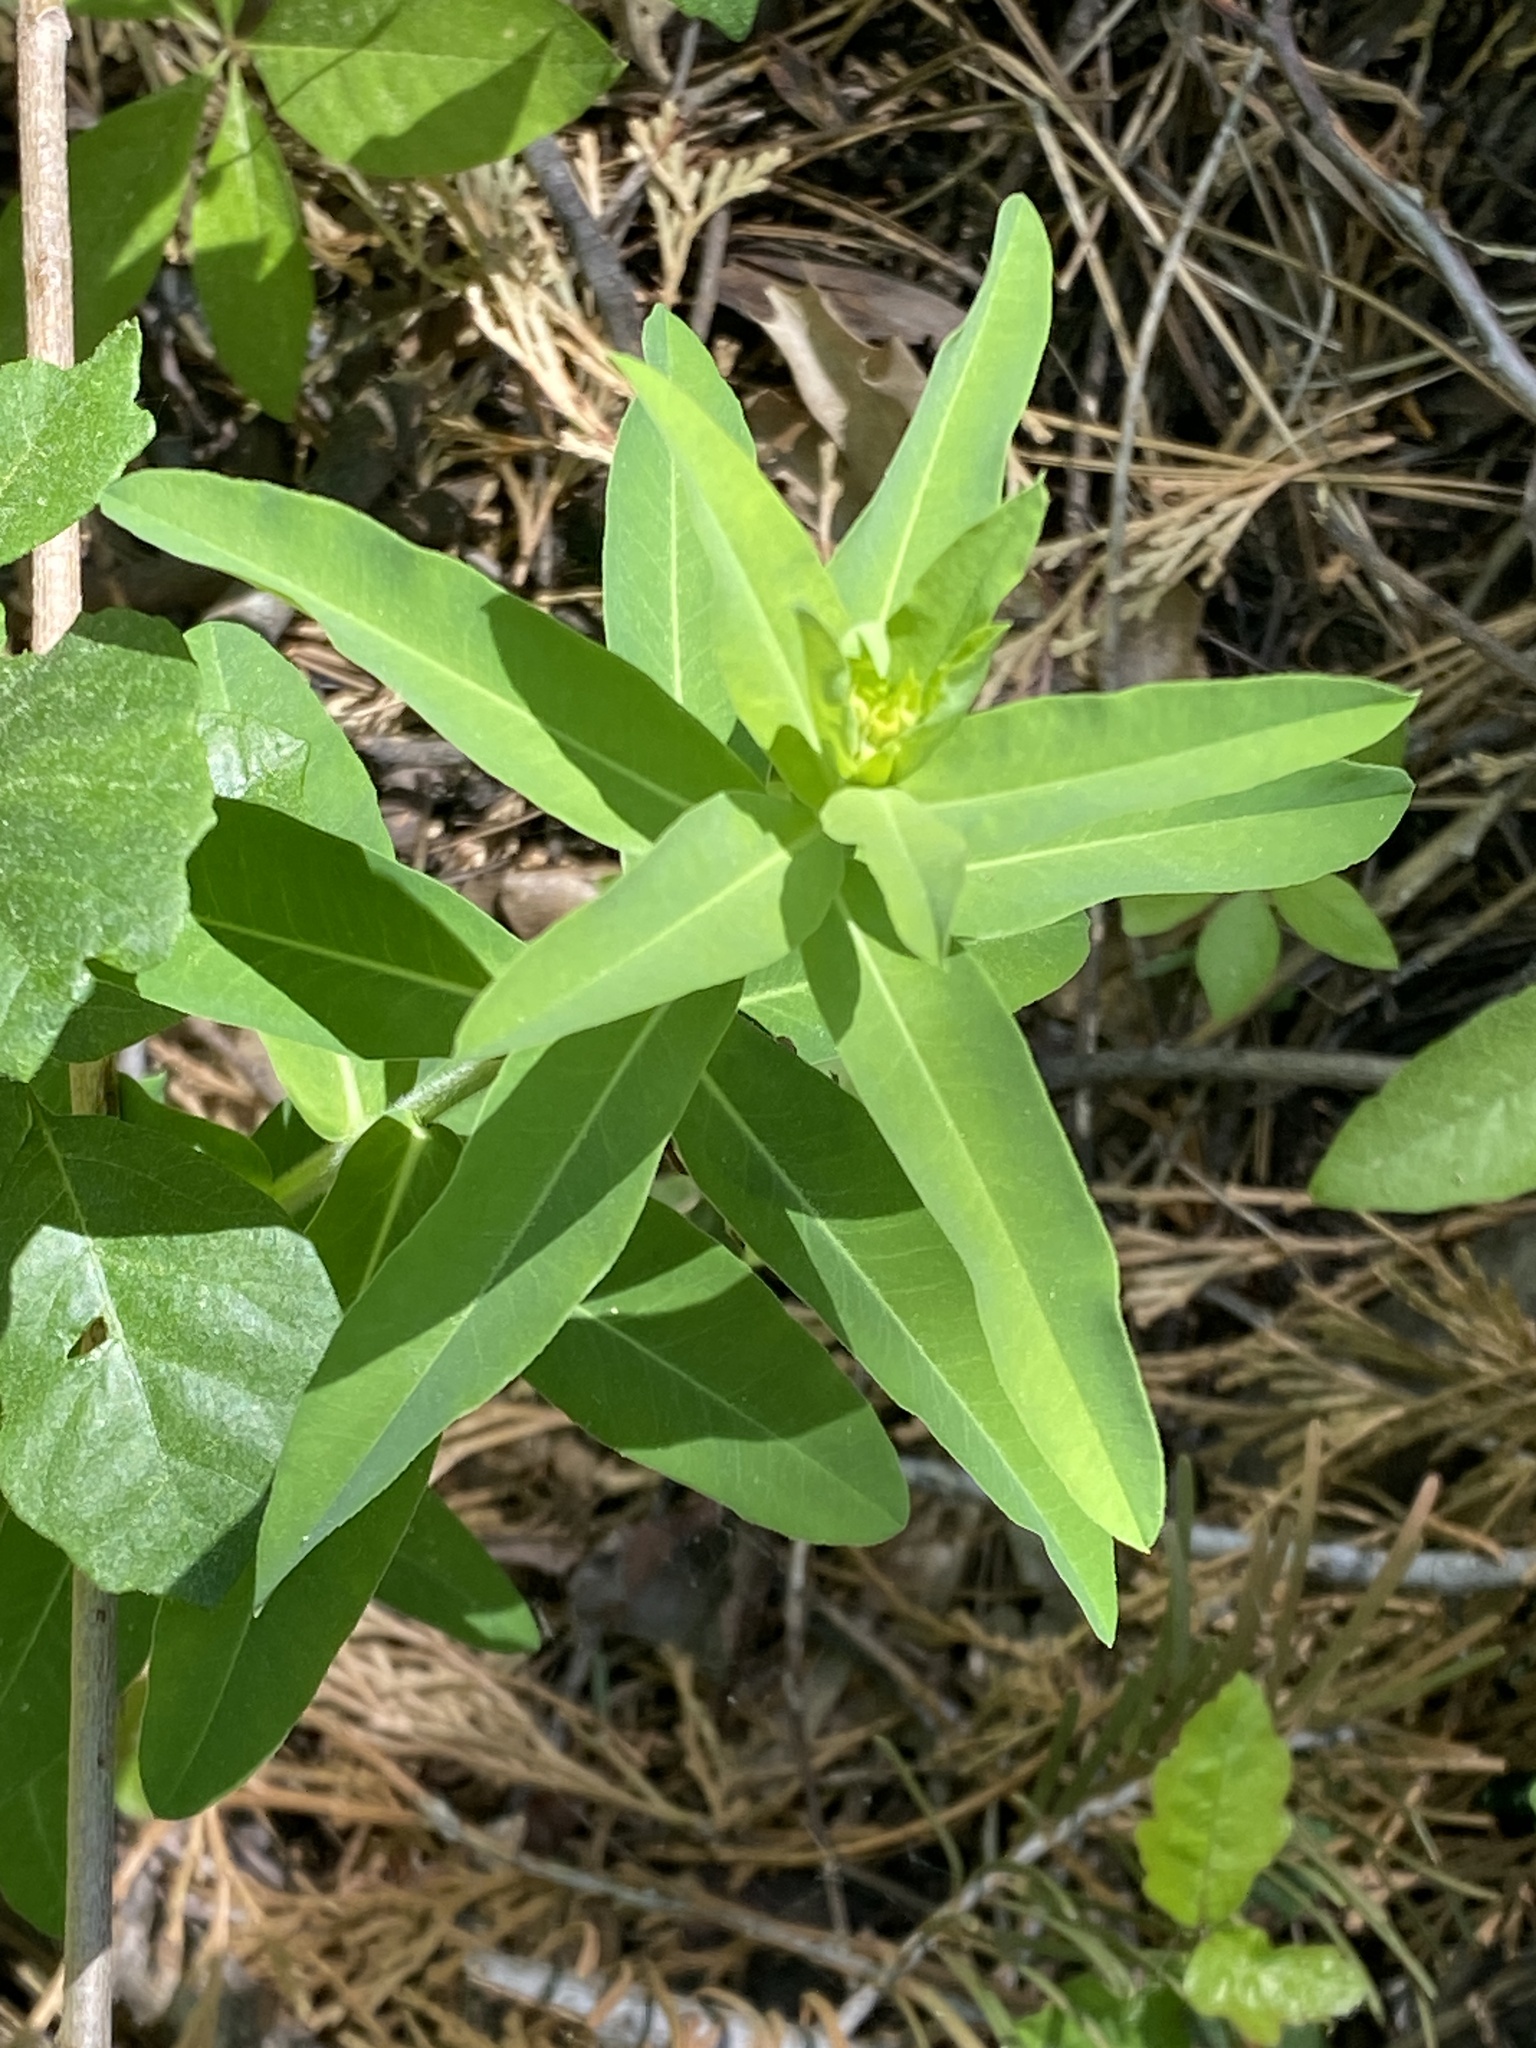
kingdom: Plantae
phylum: Tracheophyta
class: Magnoliopsida
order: Malpighiales
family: Euphorbiaceae
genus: Euphorbia
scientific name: Euphorbia oblongata
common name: Balkan spurge
